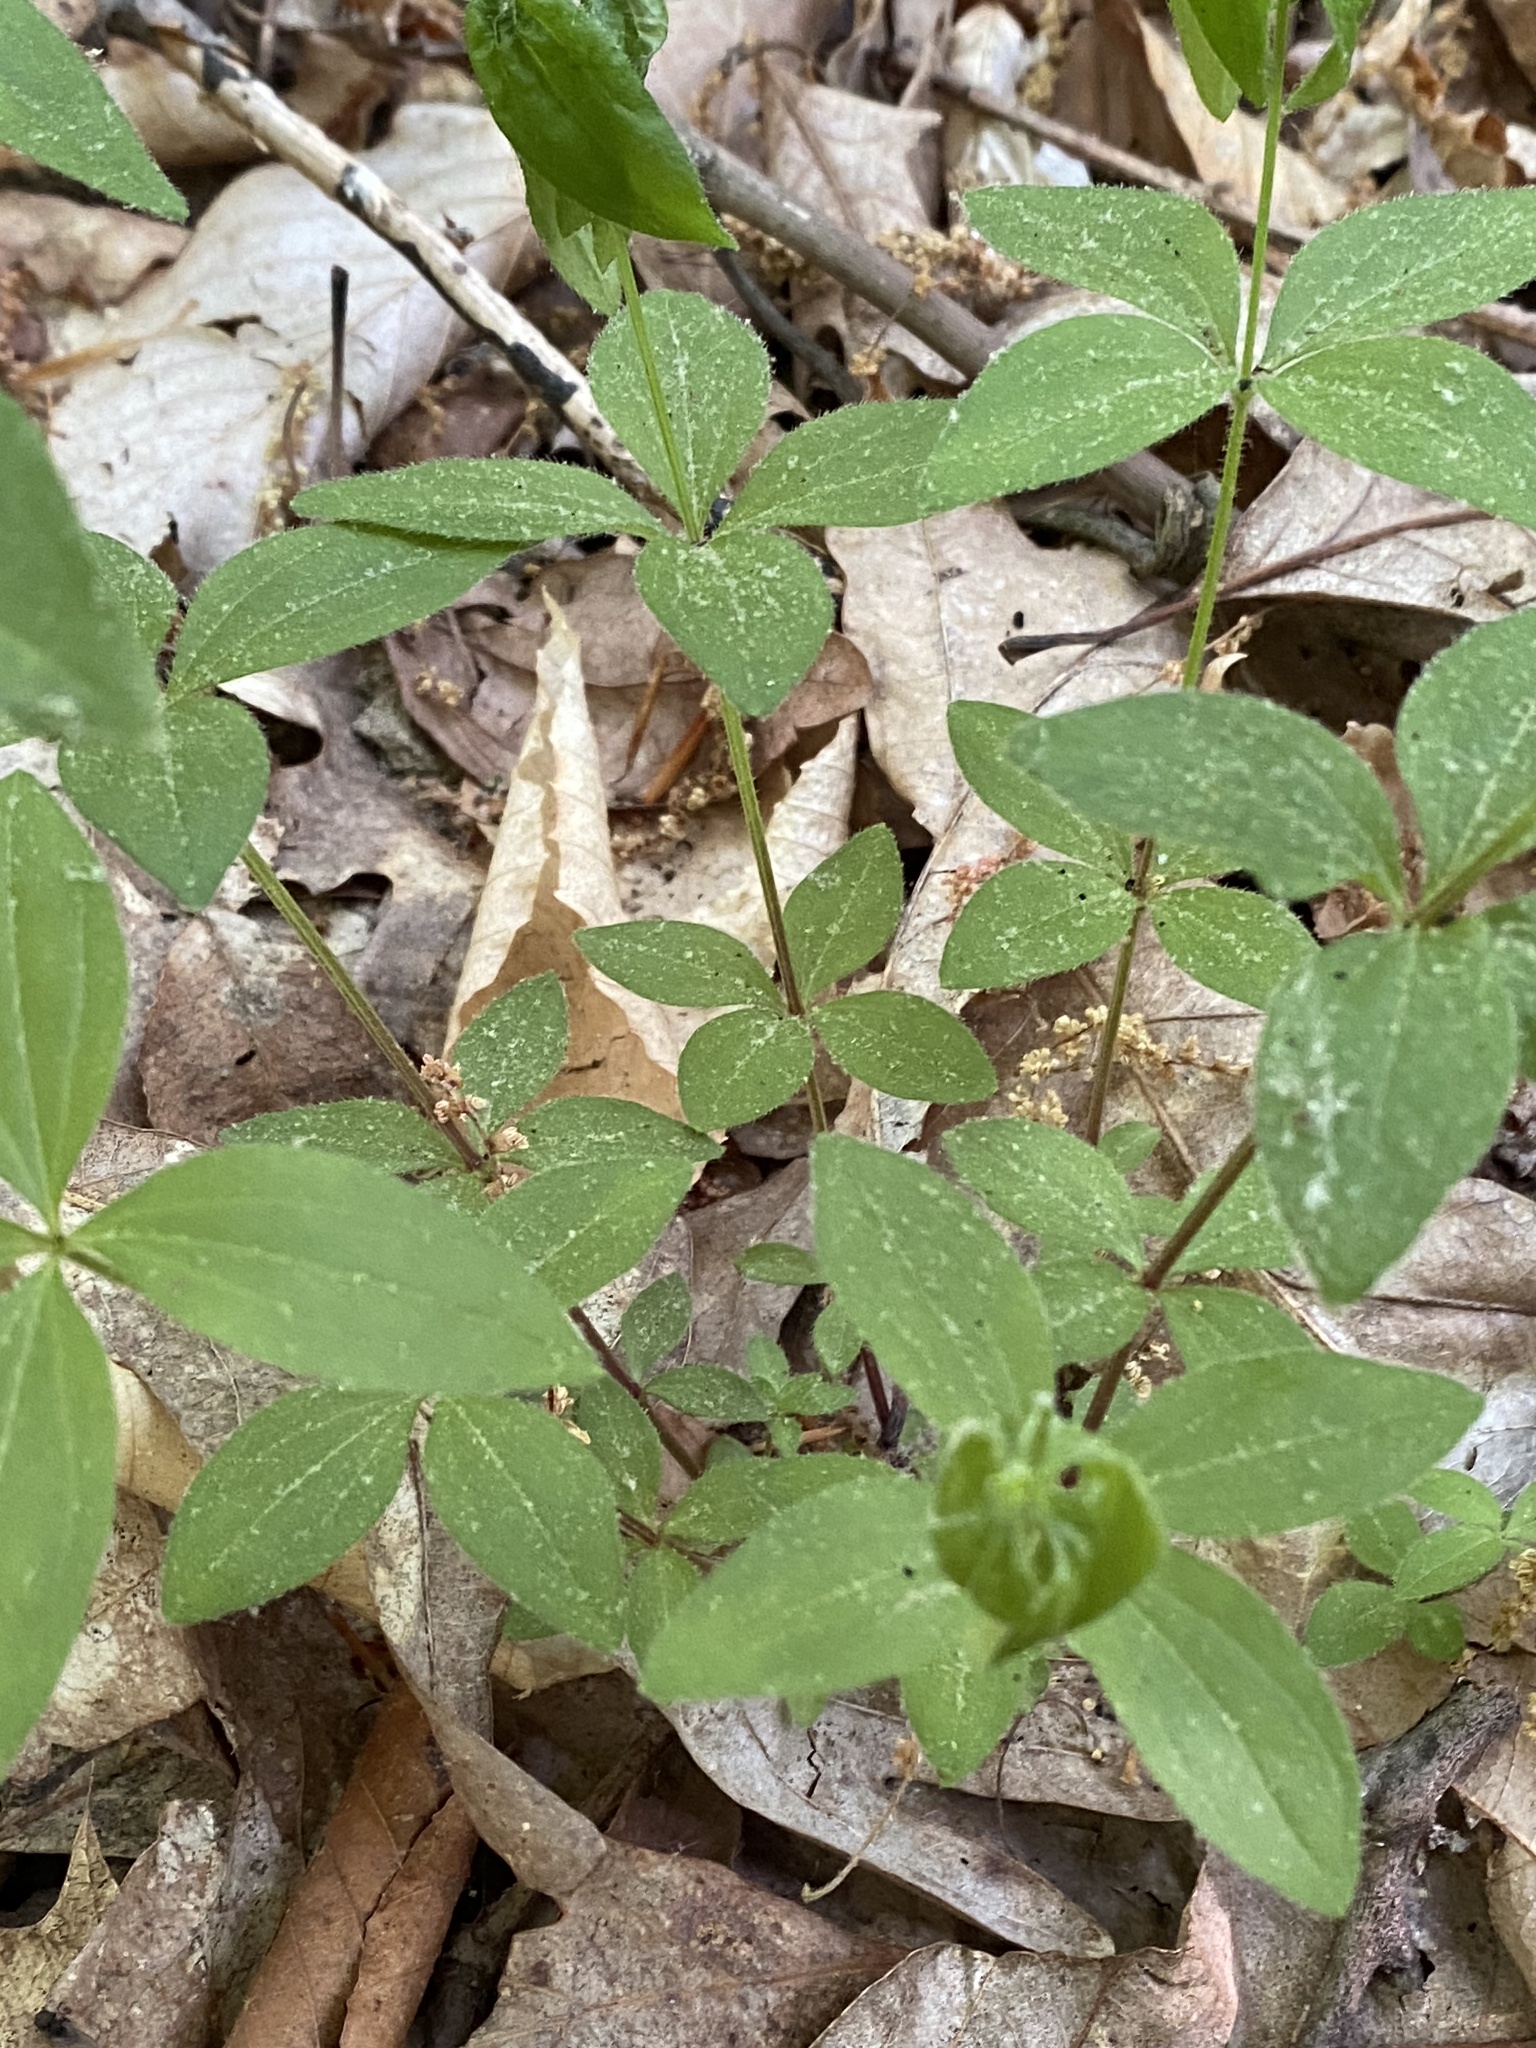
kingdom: Plantae
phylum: Tracheophyta
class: Magnoliopsida
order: Gentianales
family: Rubiaceae
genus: Galium
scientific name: Galium circaezans
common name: Forest bedstraw
